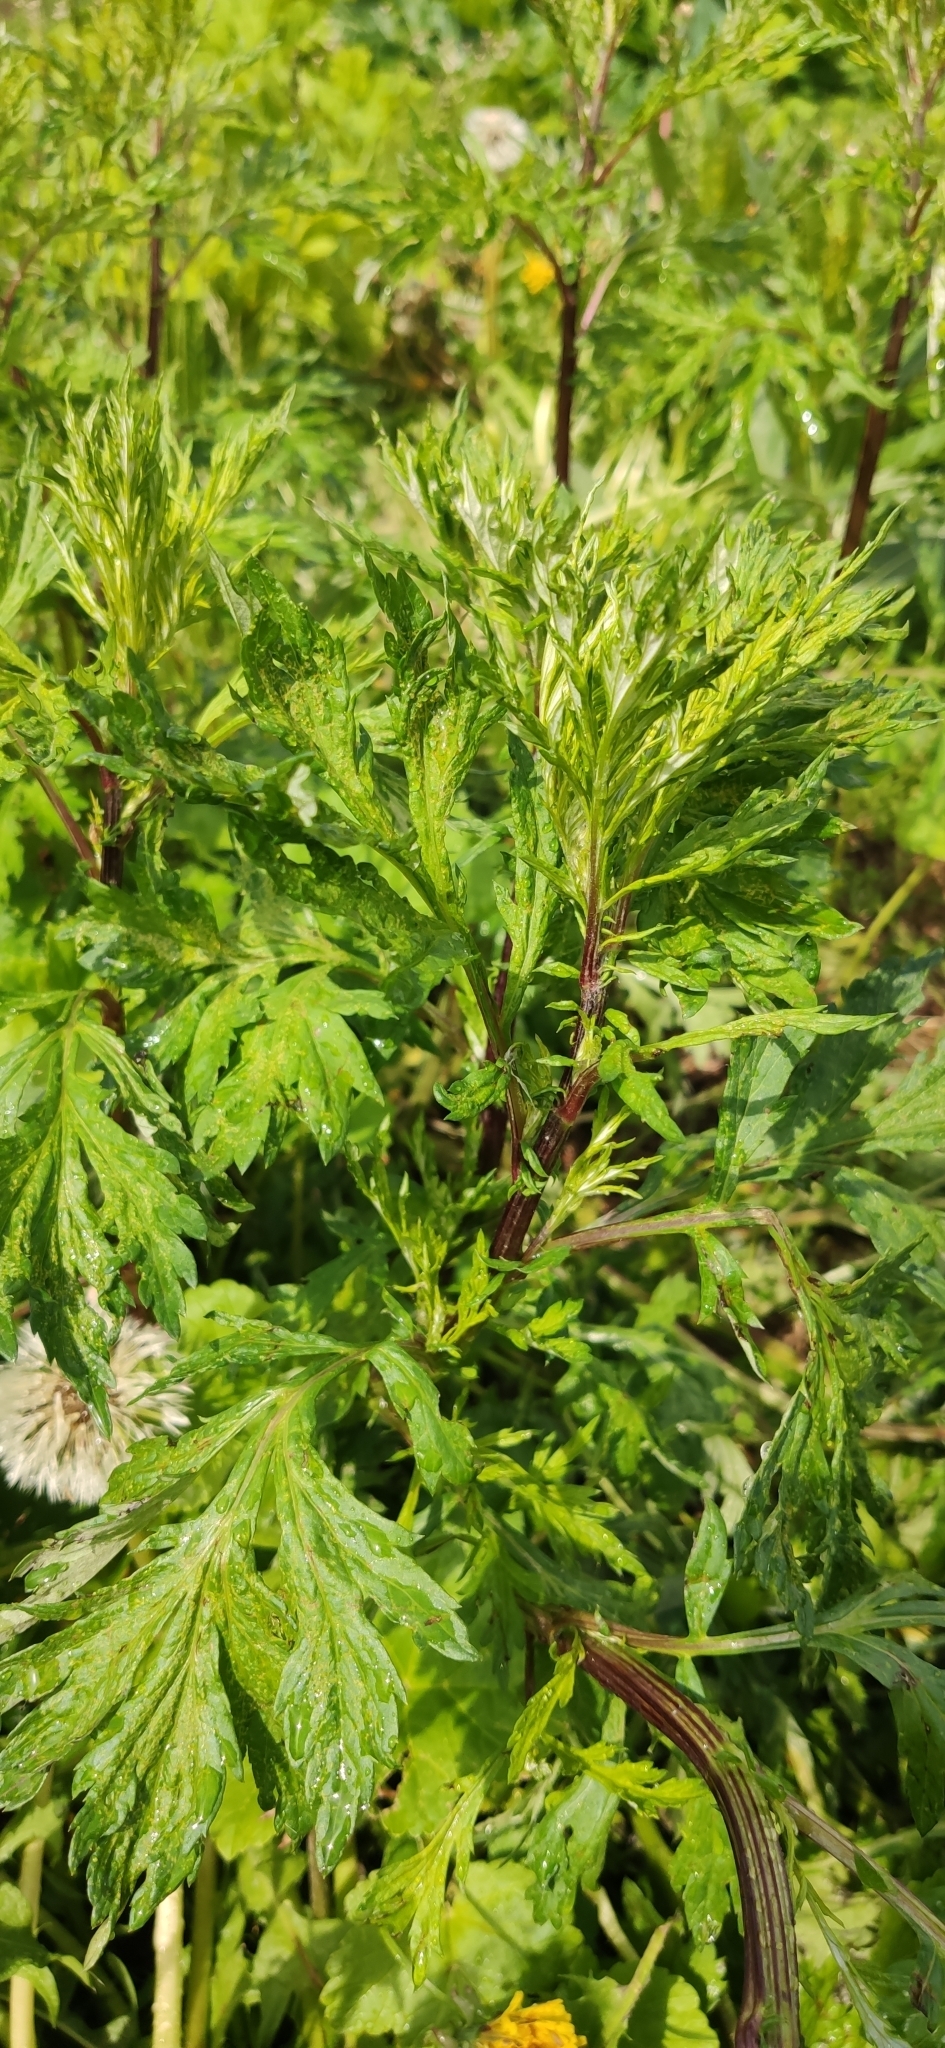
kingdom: Plantae
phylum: Tracheophyta
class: Magnoliopsida
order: Asterales
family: Asteraceae
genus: Artemisia
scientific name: Artemisia vulgaris
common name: Mugwort
